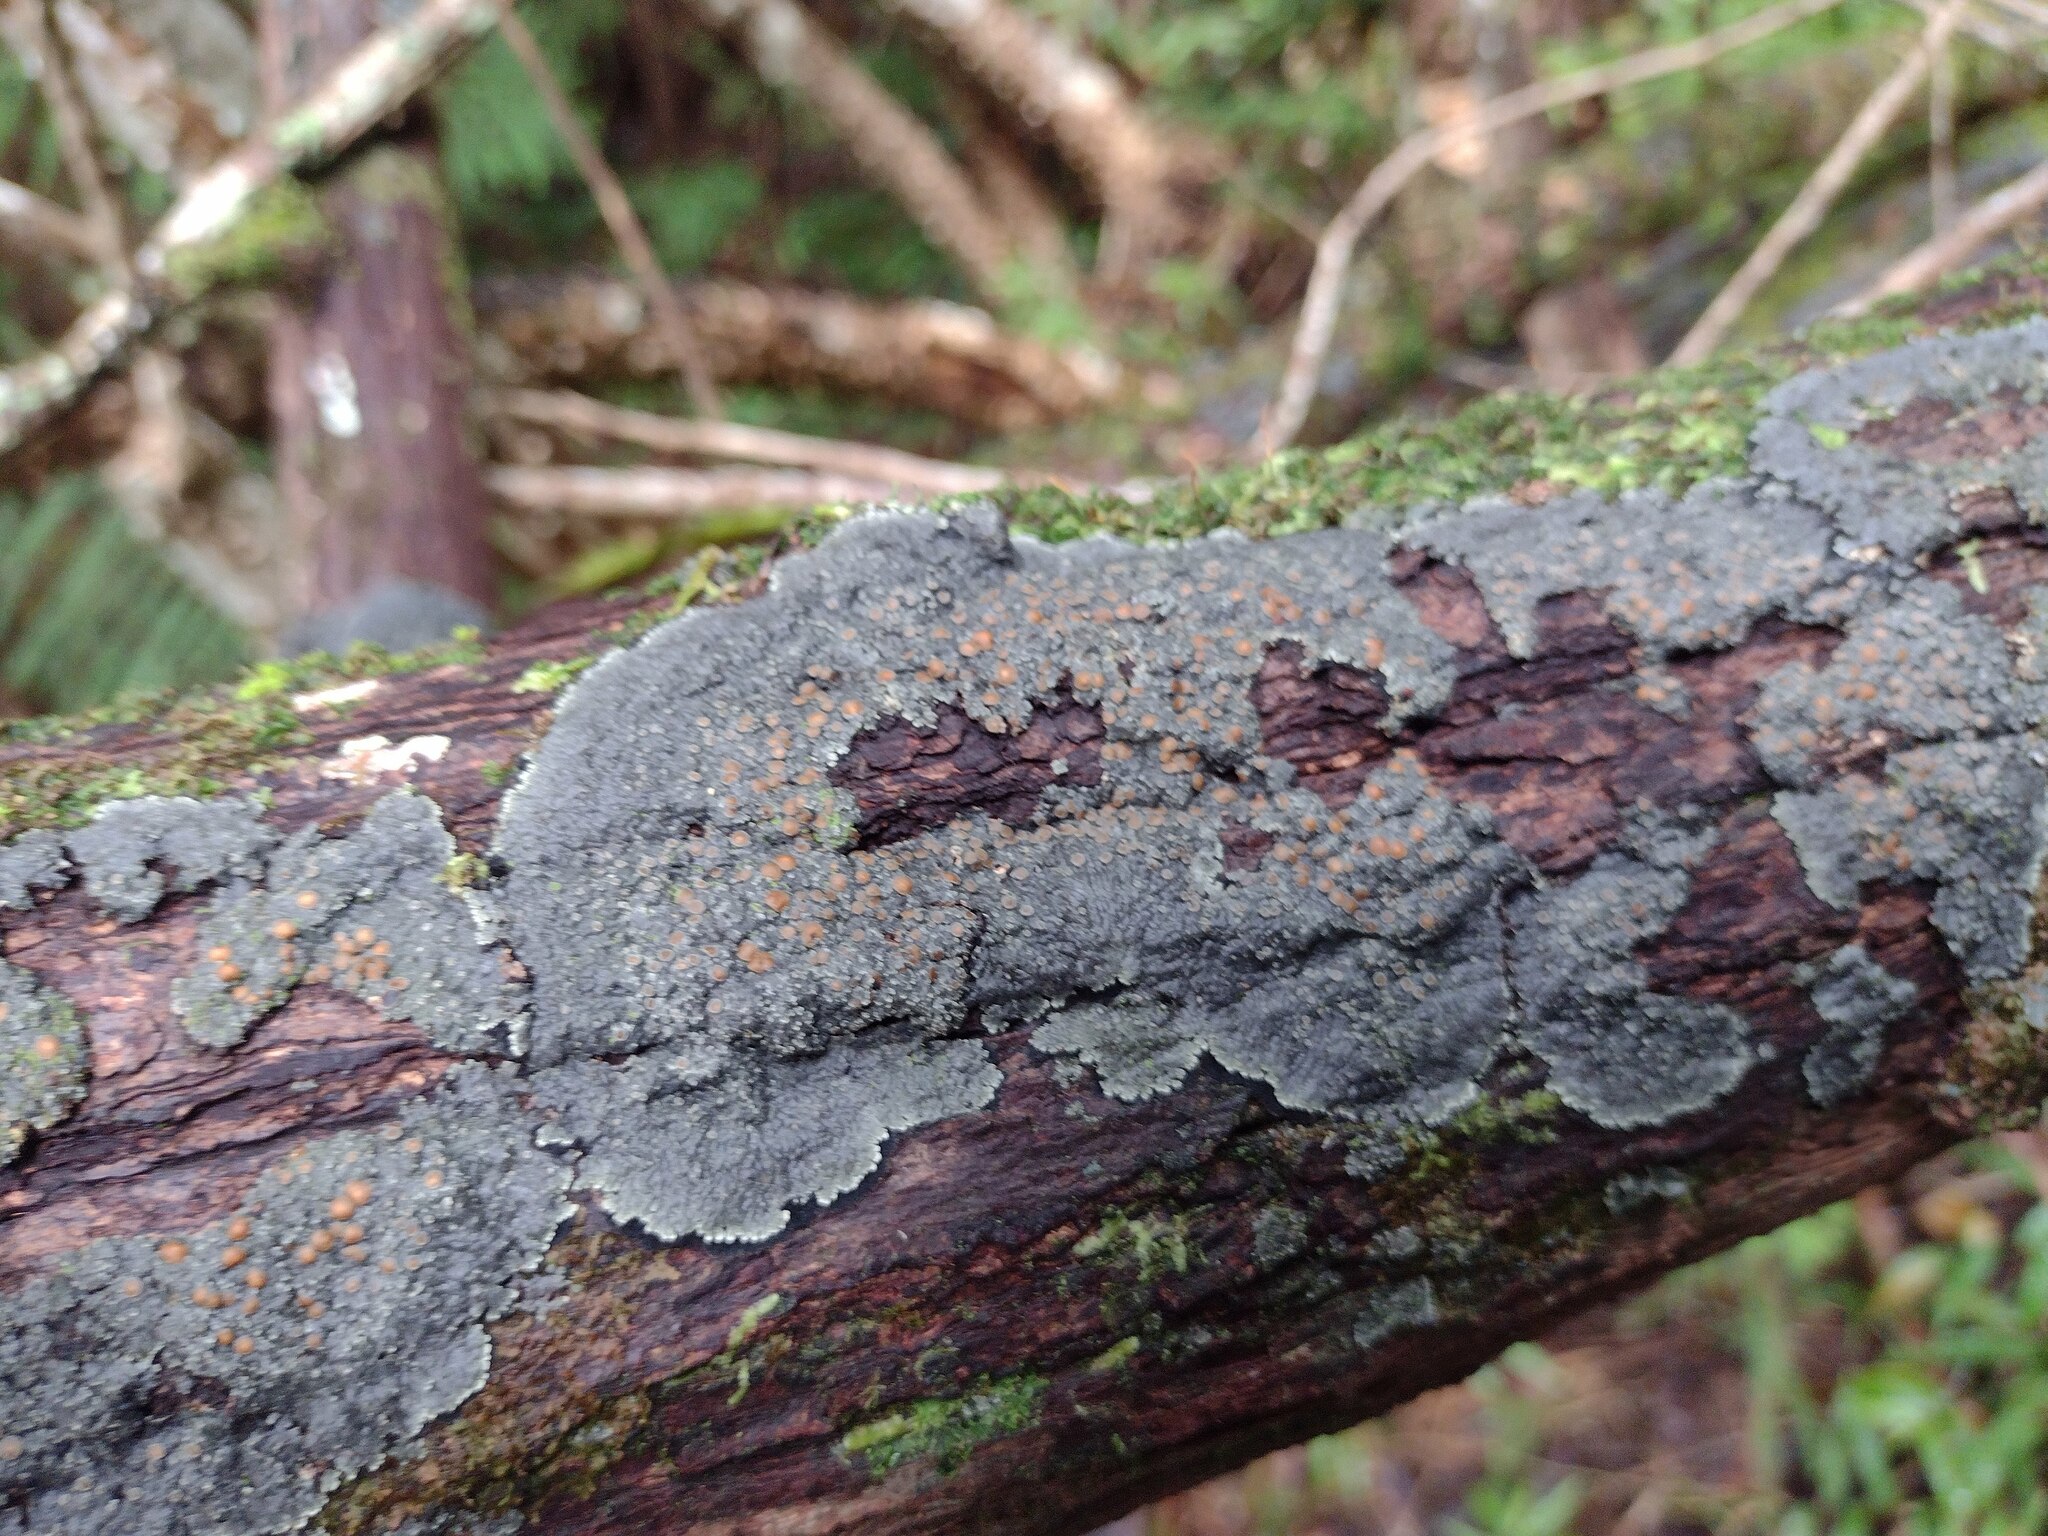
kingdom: Fungi
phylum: Ascomycota
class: Lecanoromycetes
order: Peltigerales
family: Pannariaceae
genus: Lepidocollema
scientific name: Lepidocollema marianum
